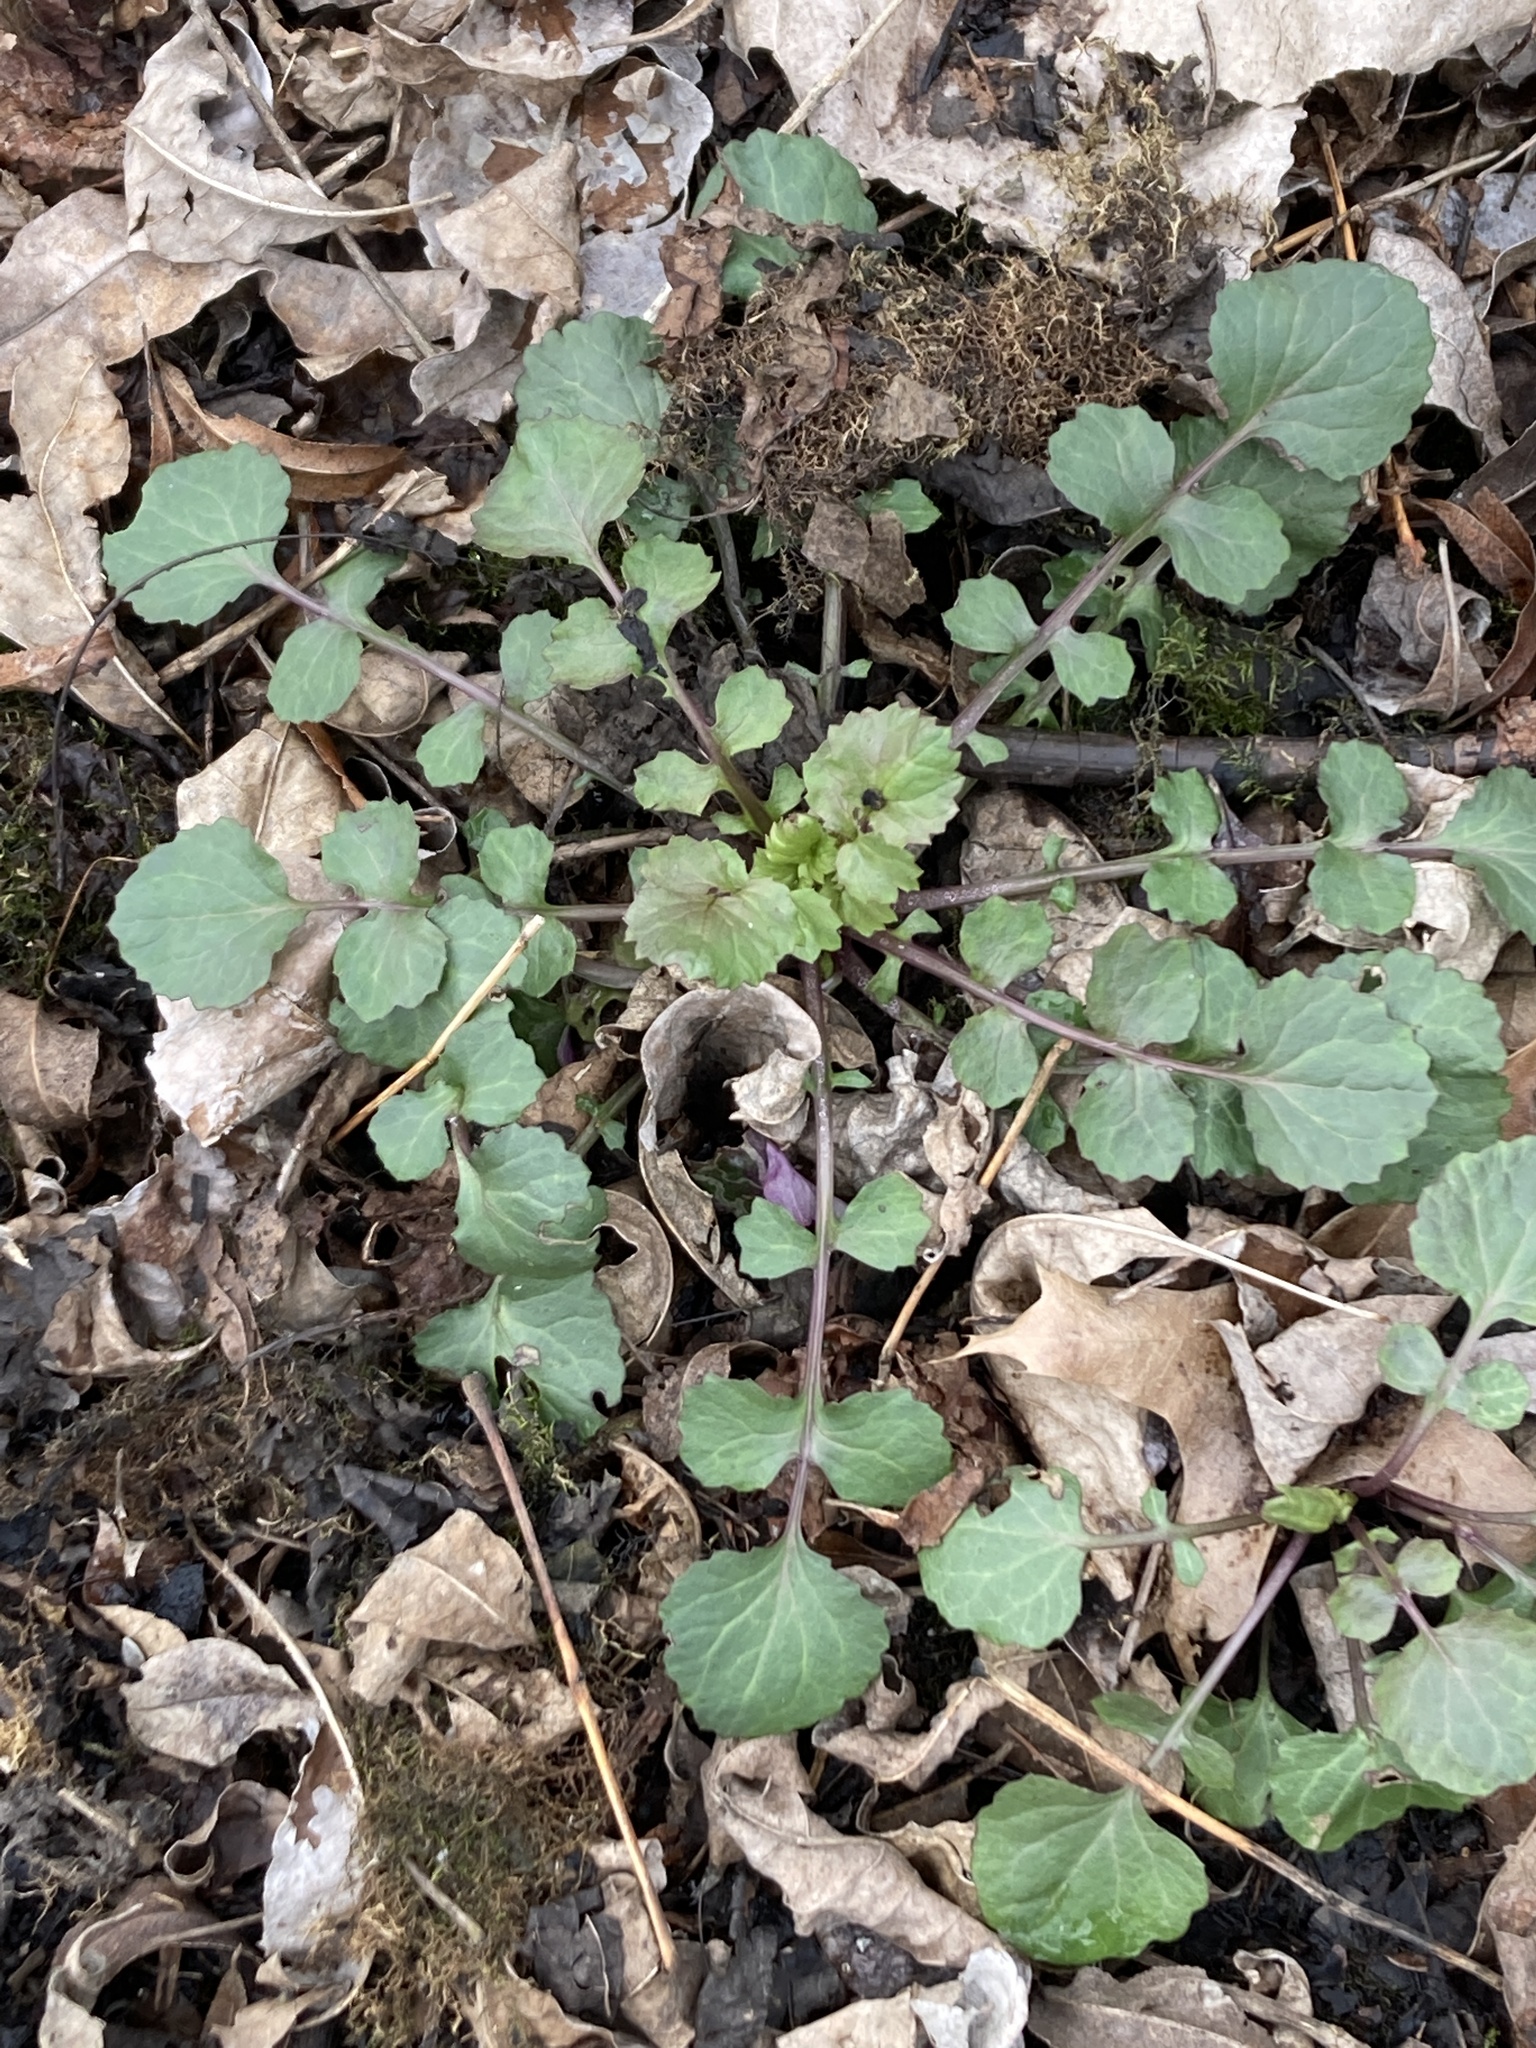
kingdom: Plantae
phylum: Tracheophyta
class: Magnoliopsida
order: Asterales
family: Asteraceae
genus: Packera
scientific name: Packera glabella
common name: Butterweed
